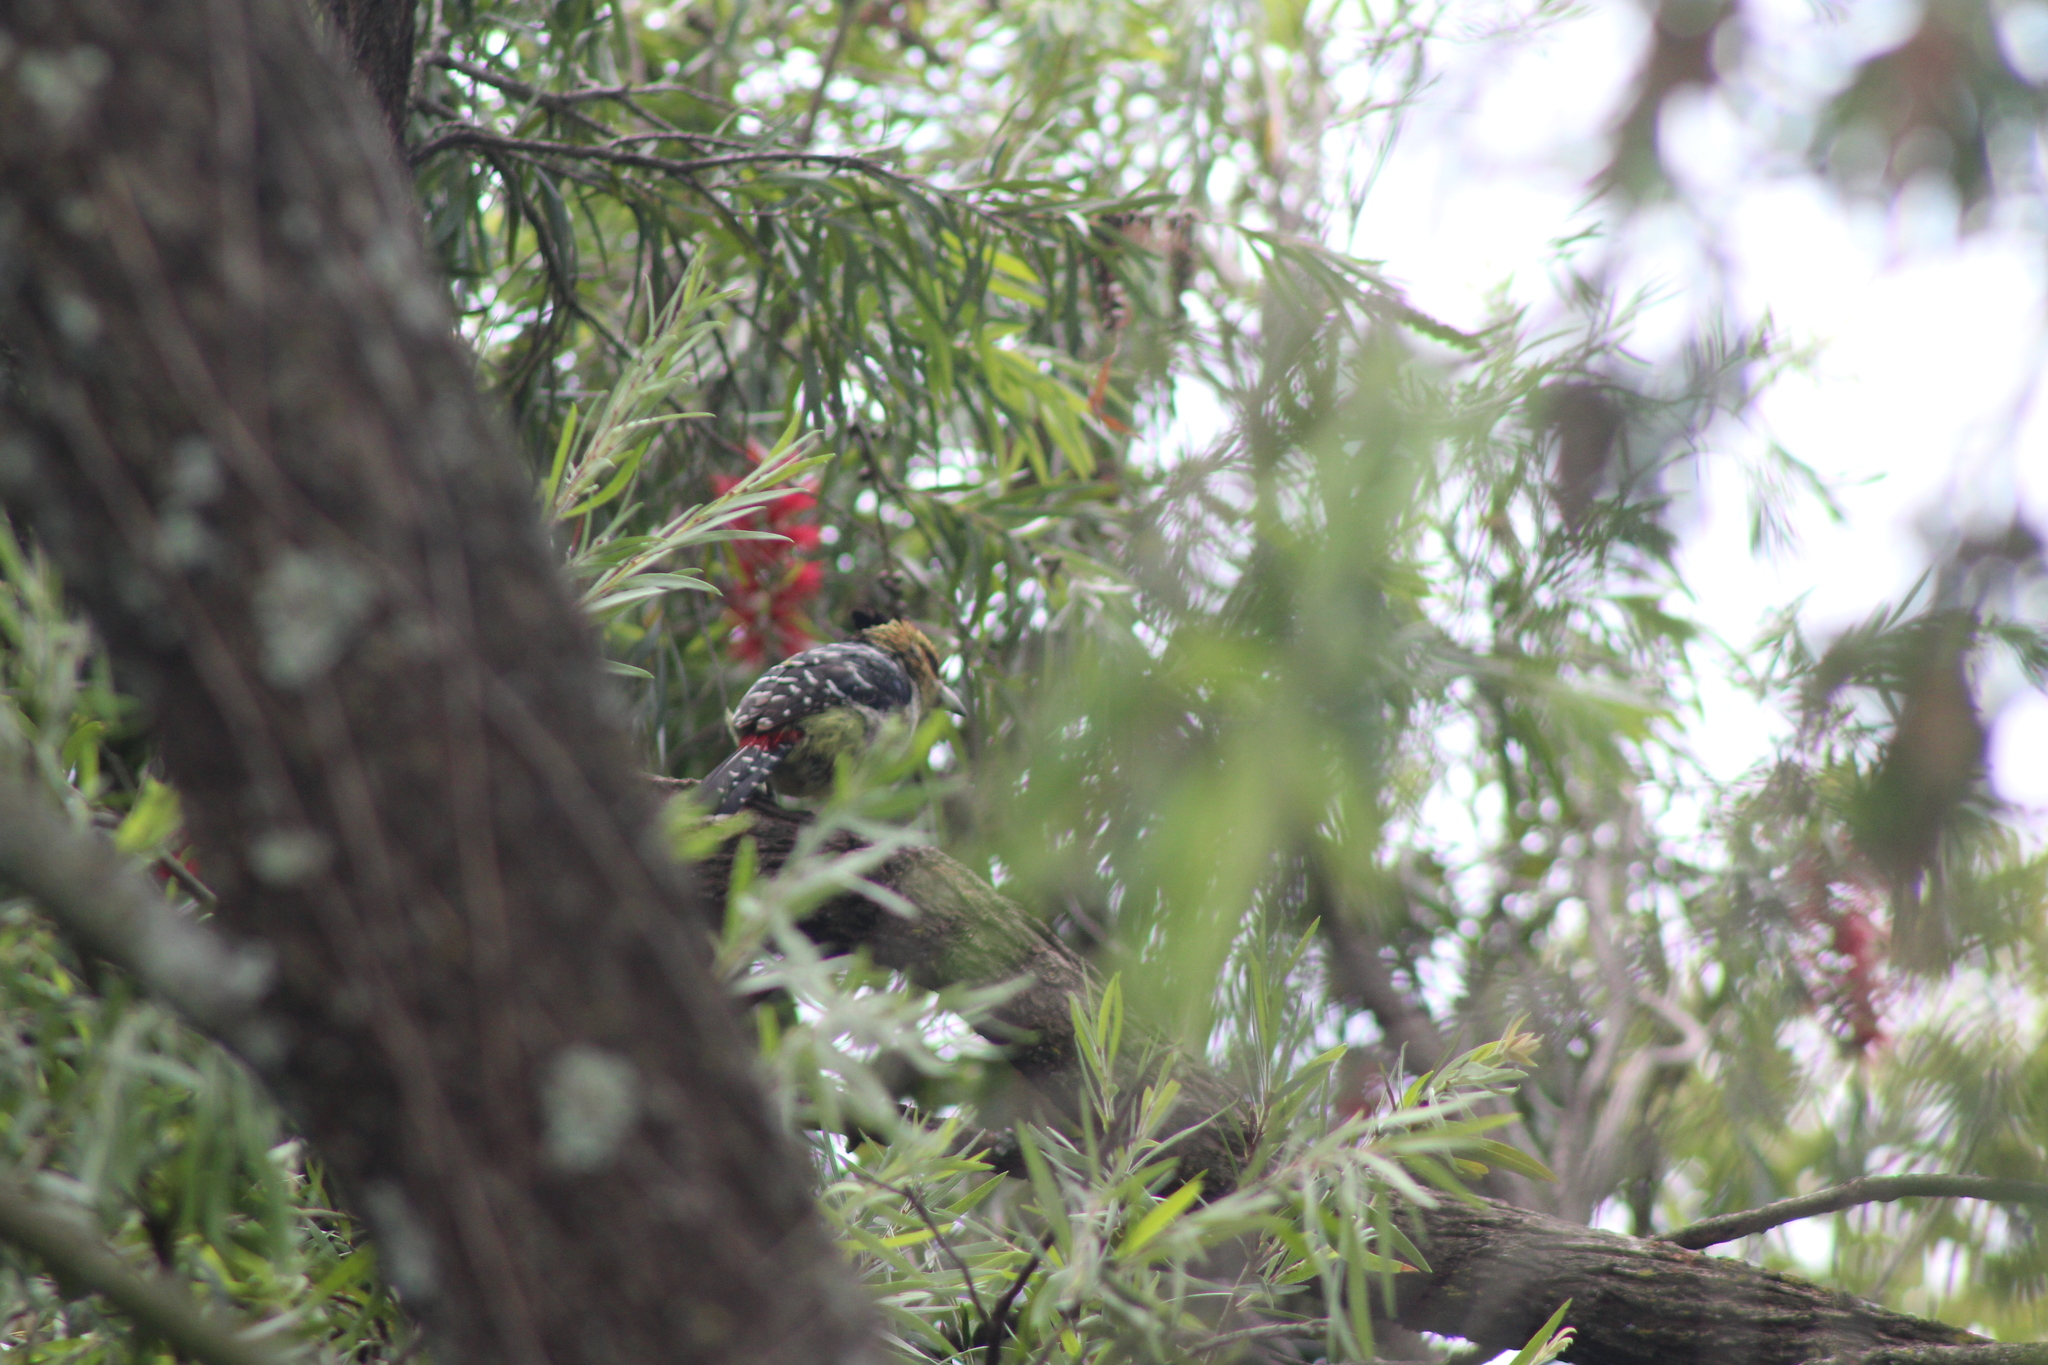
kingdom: Animalia
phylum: Chordata
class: Aves
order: Piciformes
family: Lybiidae
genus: Trachyphonus
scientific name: Trachyphonus vaillantii
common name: Crested barbet
